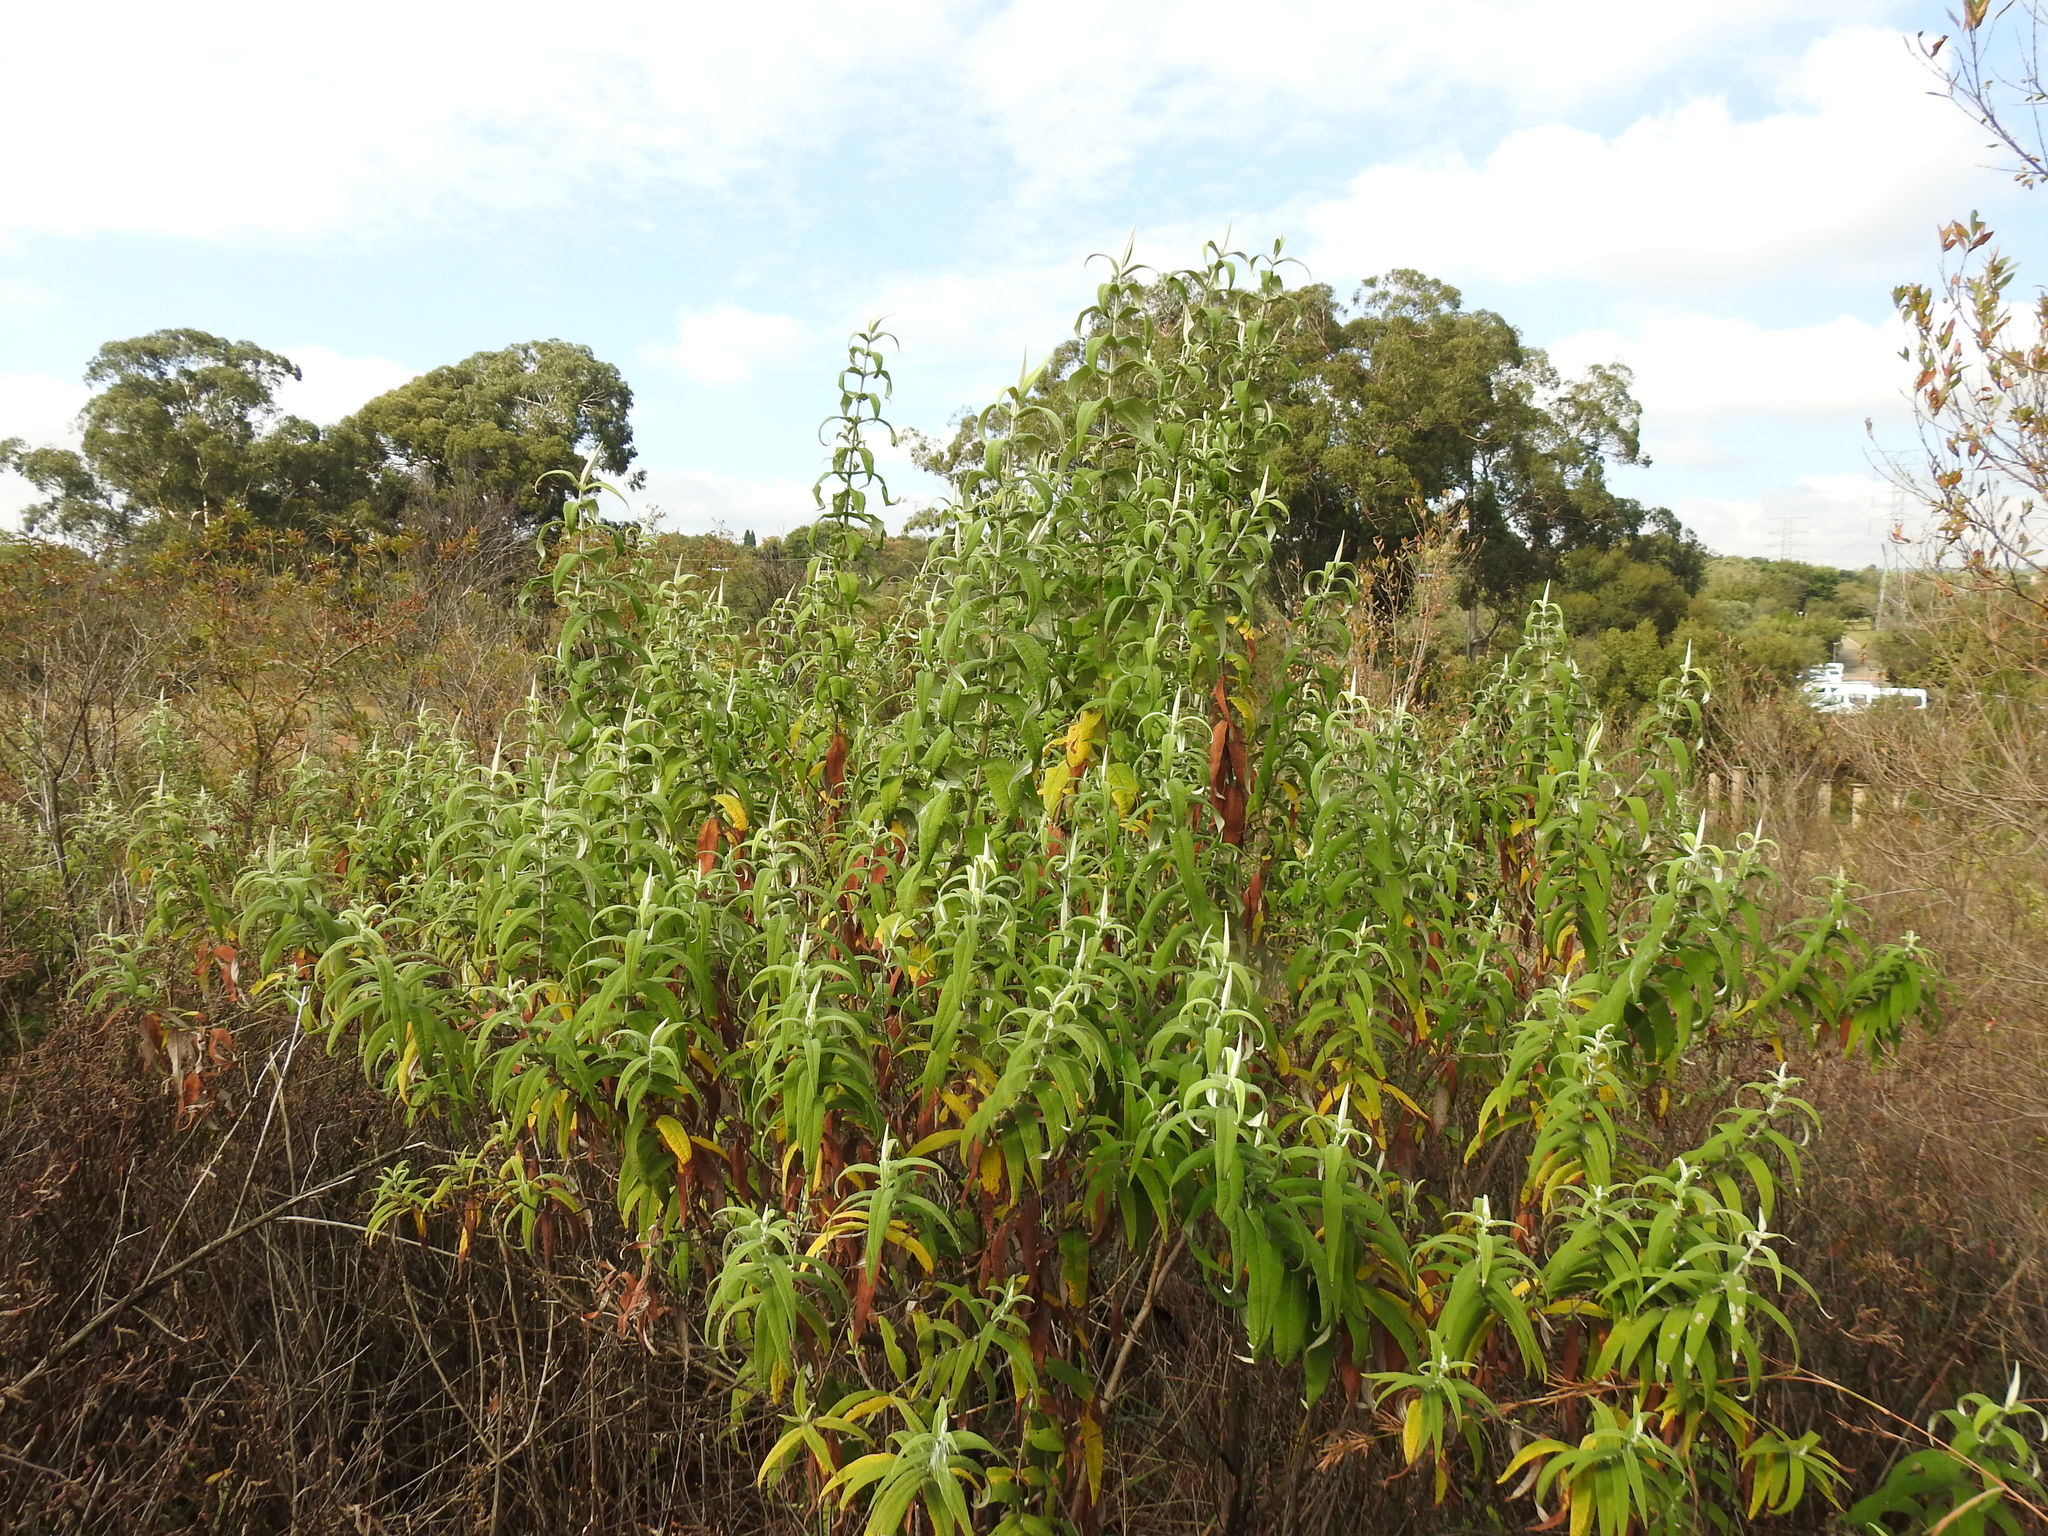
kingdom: Plantae
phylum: Tracheophyta
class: Magnoliopsida
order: Lamiales
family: Scrophulariaceae
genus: Buddleja
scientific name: Buddleja salviifolia
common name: Sagewood
